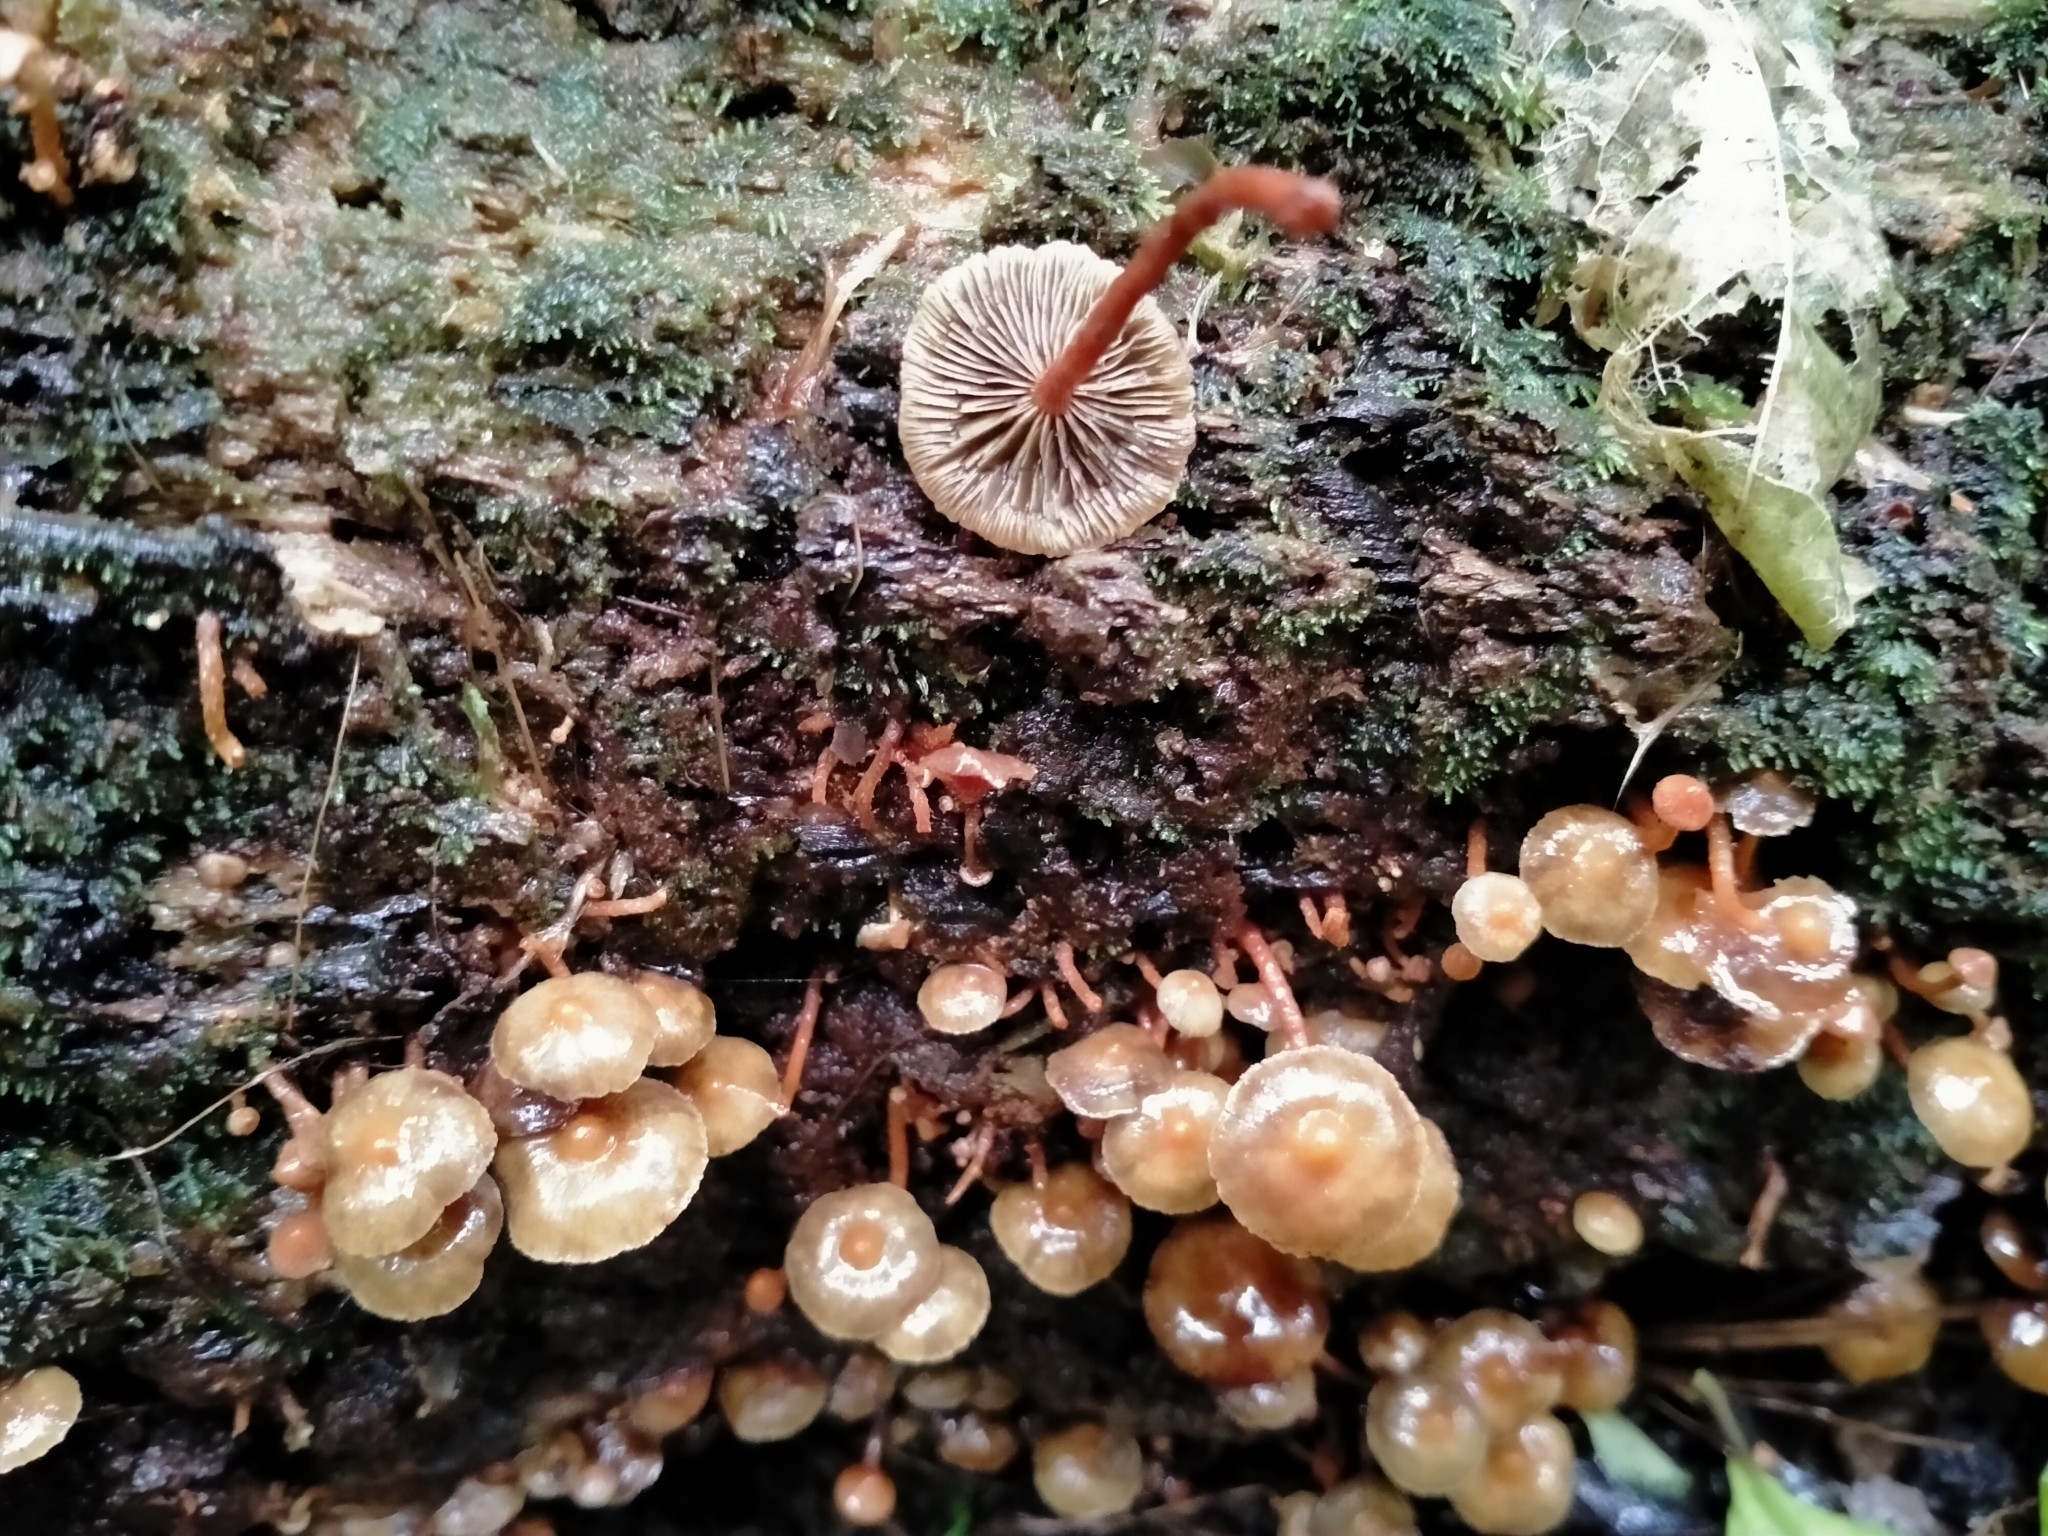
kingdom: Fungi
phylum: Basidiomycota
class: Agaricomycetes
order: Agaricales
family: Strophariaceae
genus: Hypholoma
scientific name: Hypholoma acutum
